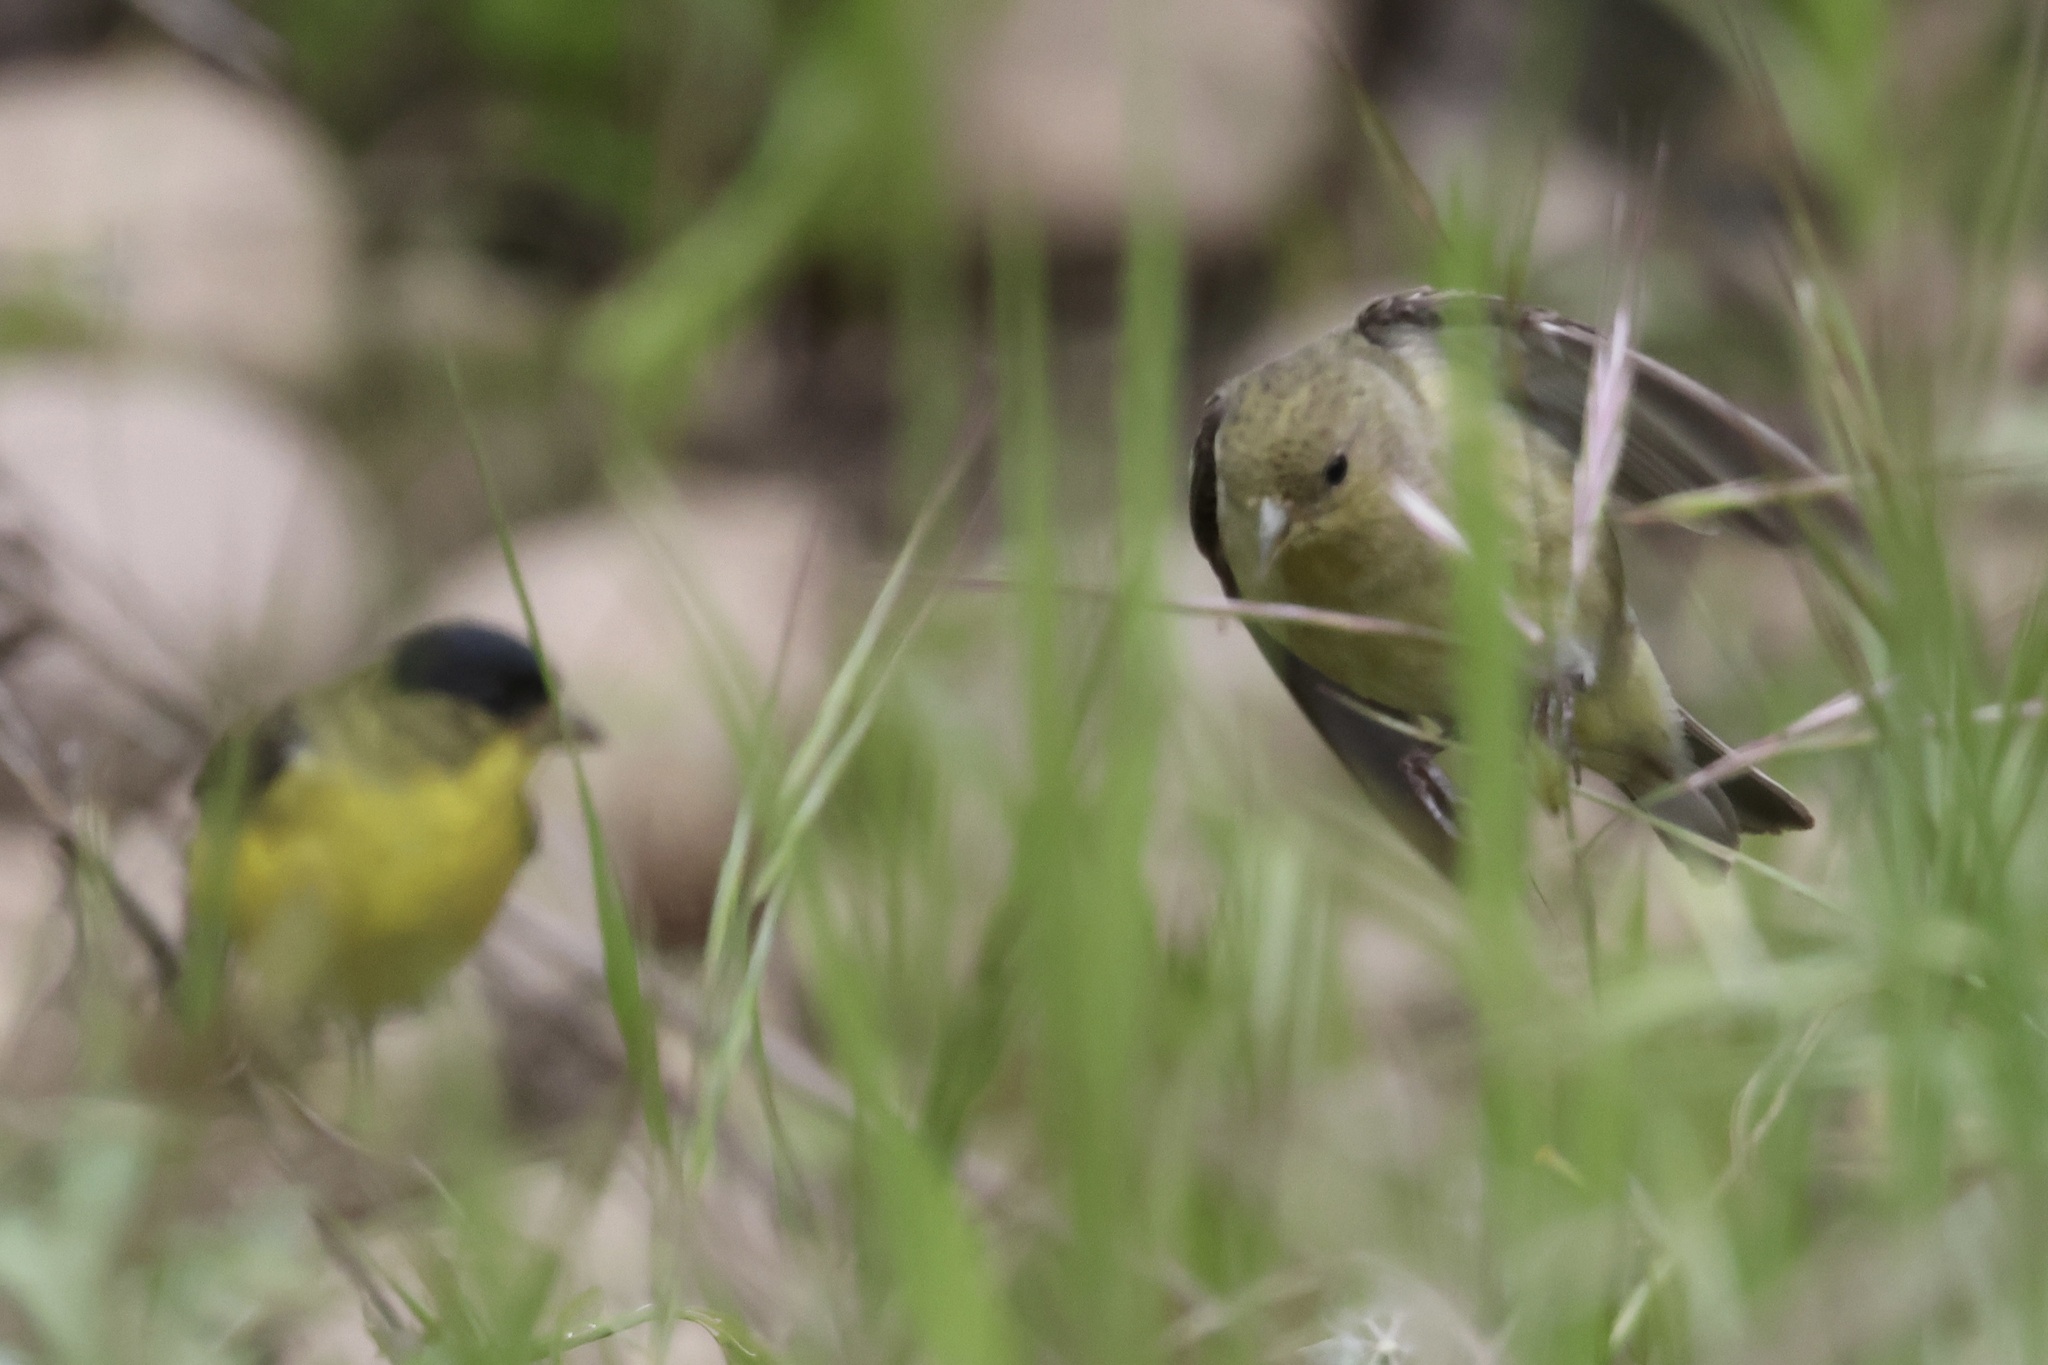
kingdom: Animalia
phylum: Chordata
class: Aves
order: Passeriformes
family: Fringillidae
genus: Spinus
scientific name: Spinus psaltria
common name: Lesser goldfinch
